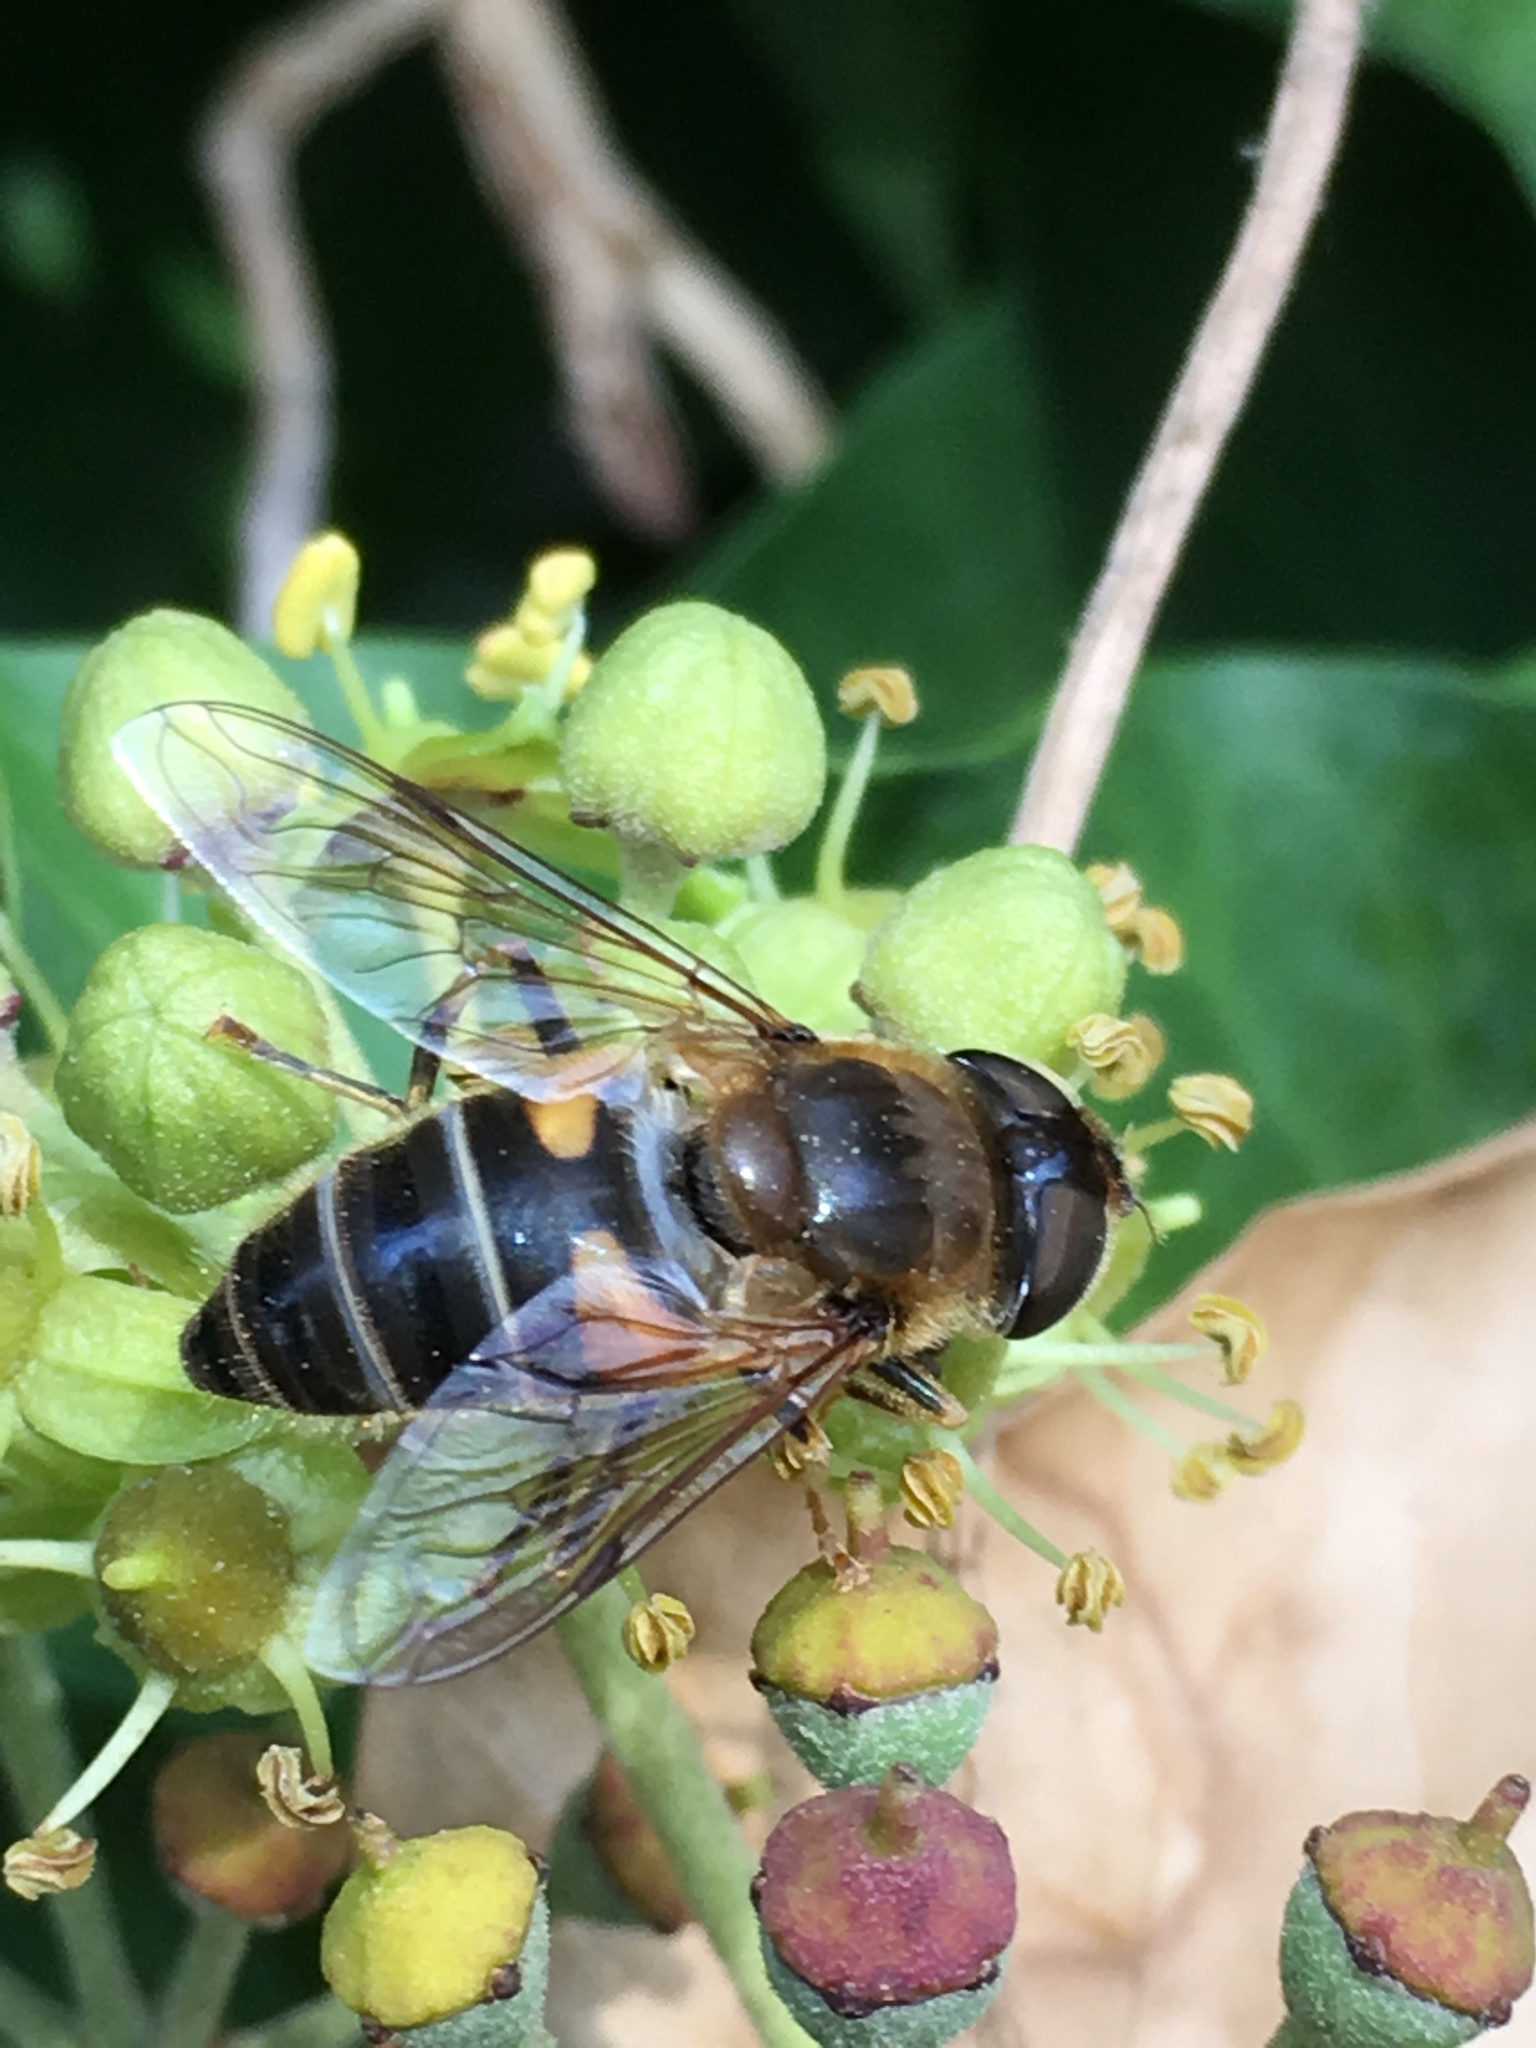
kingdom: Animalia
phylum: Arthropoda
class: Insecta
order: Diptera
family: Syrphidae
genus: Eristalis
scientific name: Eristalis pertinax
